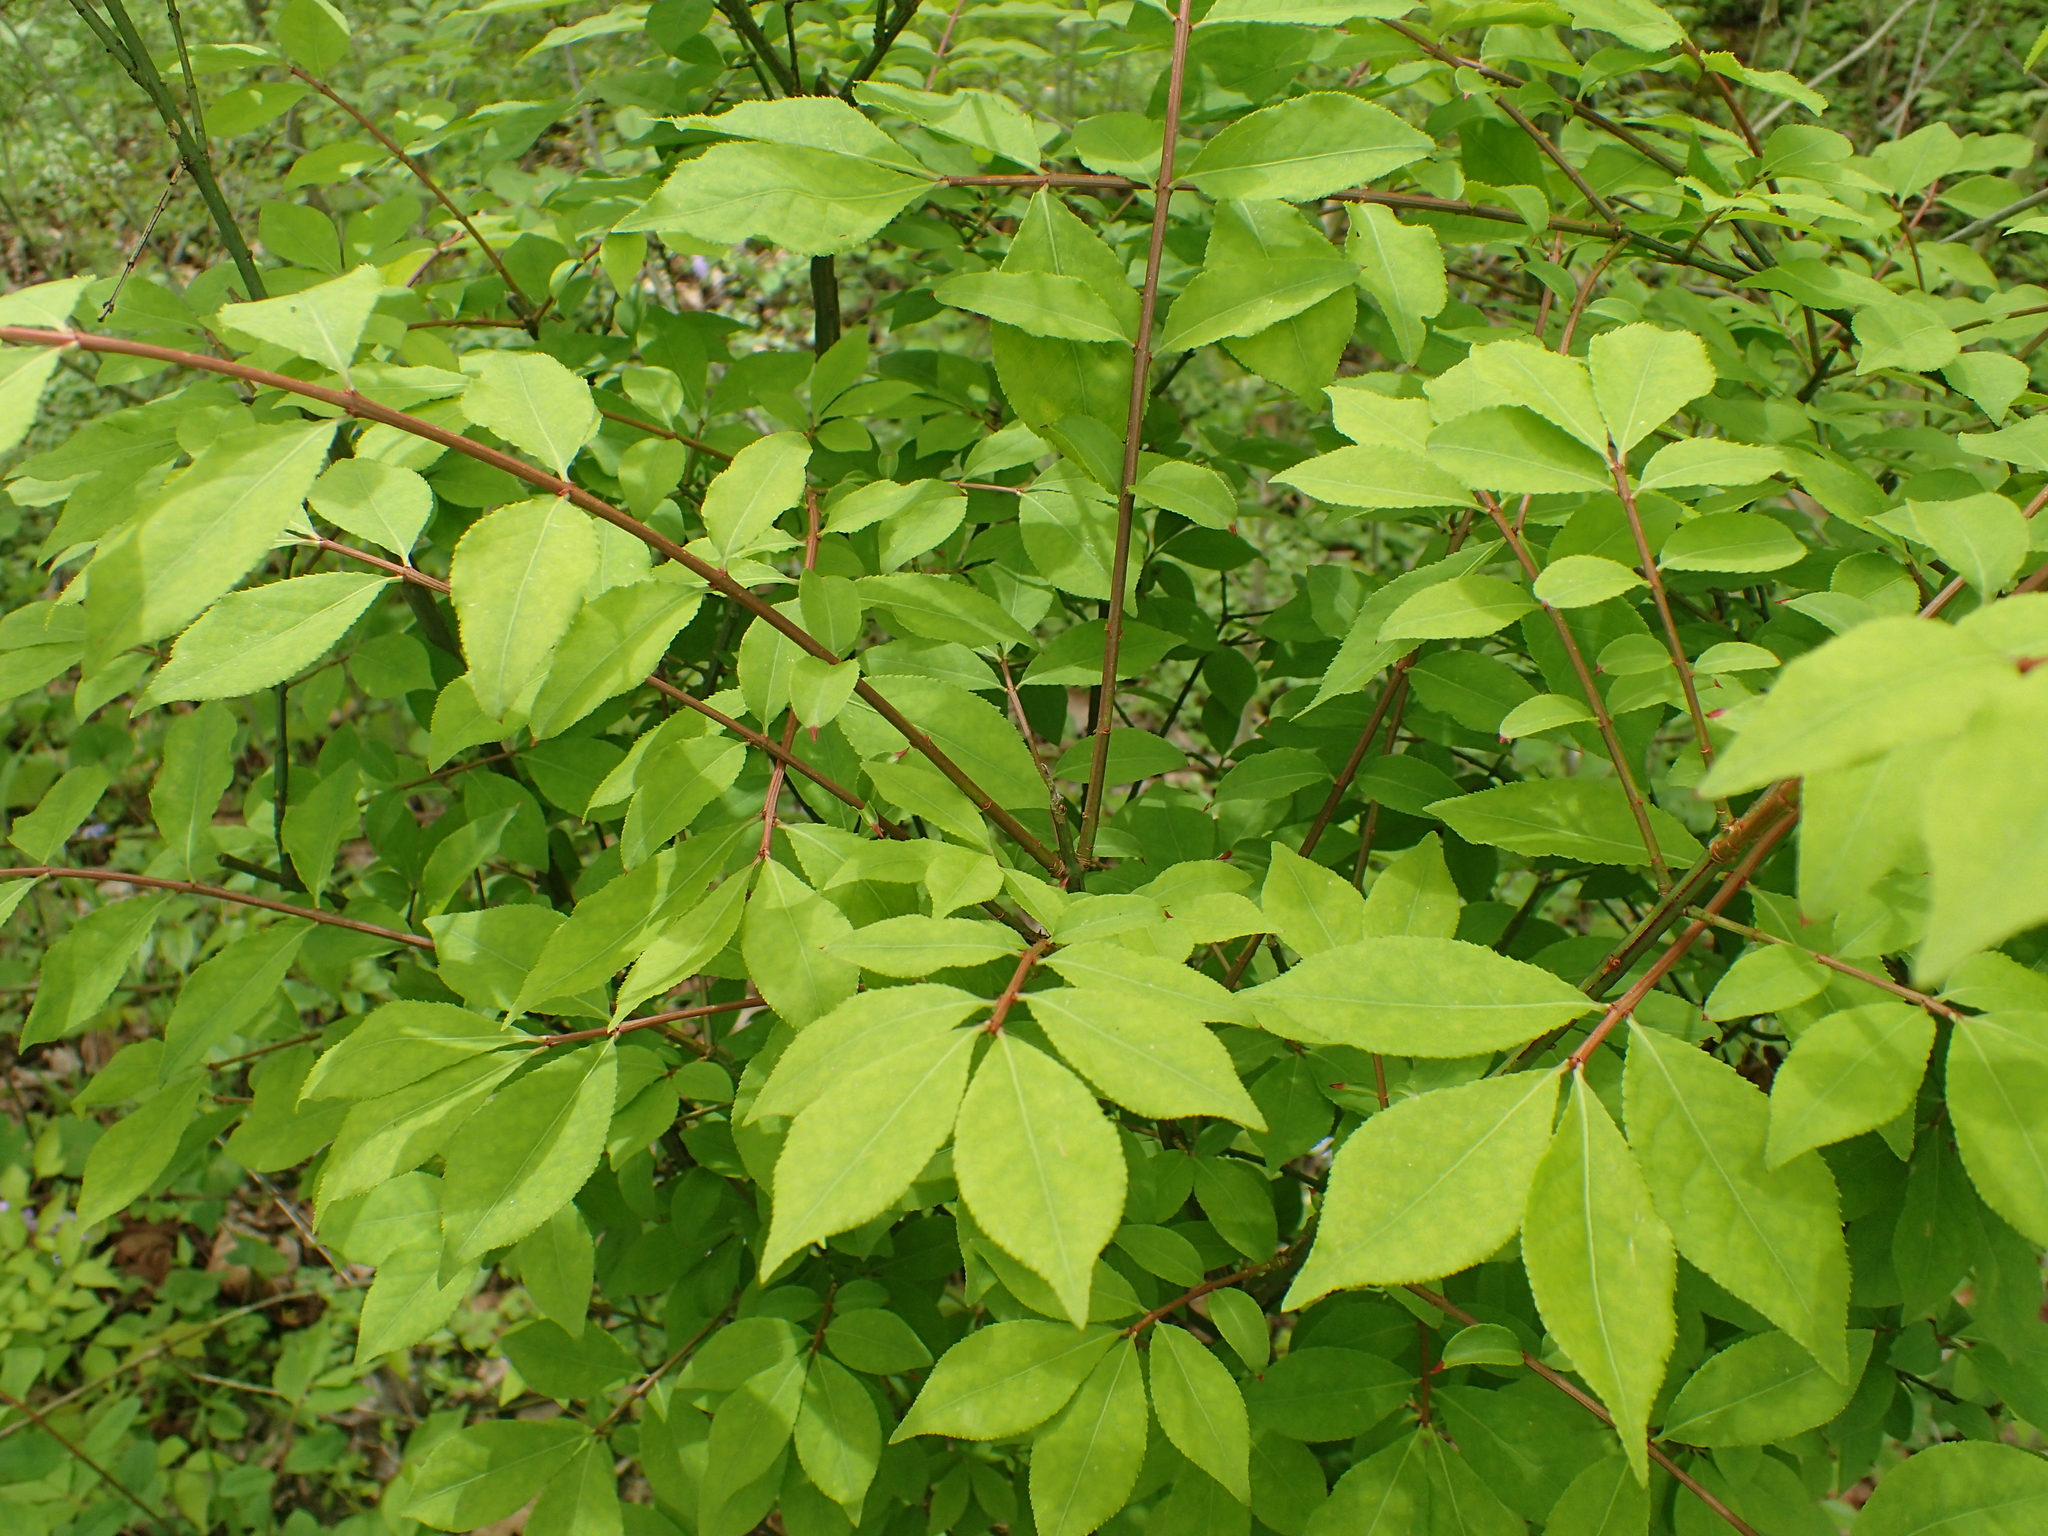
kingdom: Plantae
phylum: Tracheophyta
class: Magnoliopsida
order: Celastrales
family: Celastraceae
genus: Euonymus
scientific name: Euonymus alatus
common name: Winged euonymus
